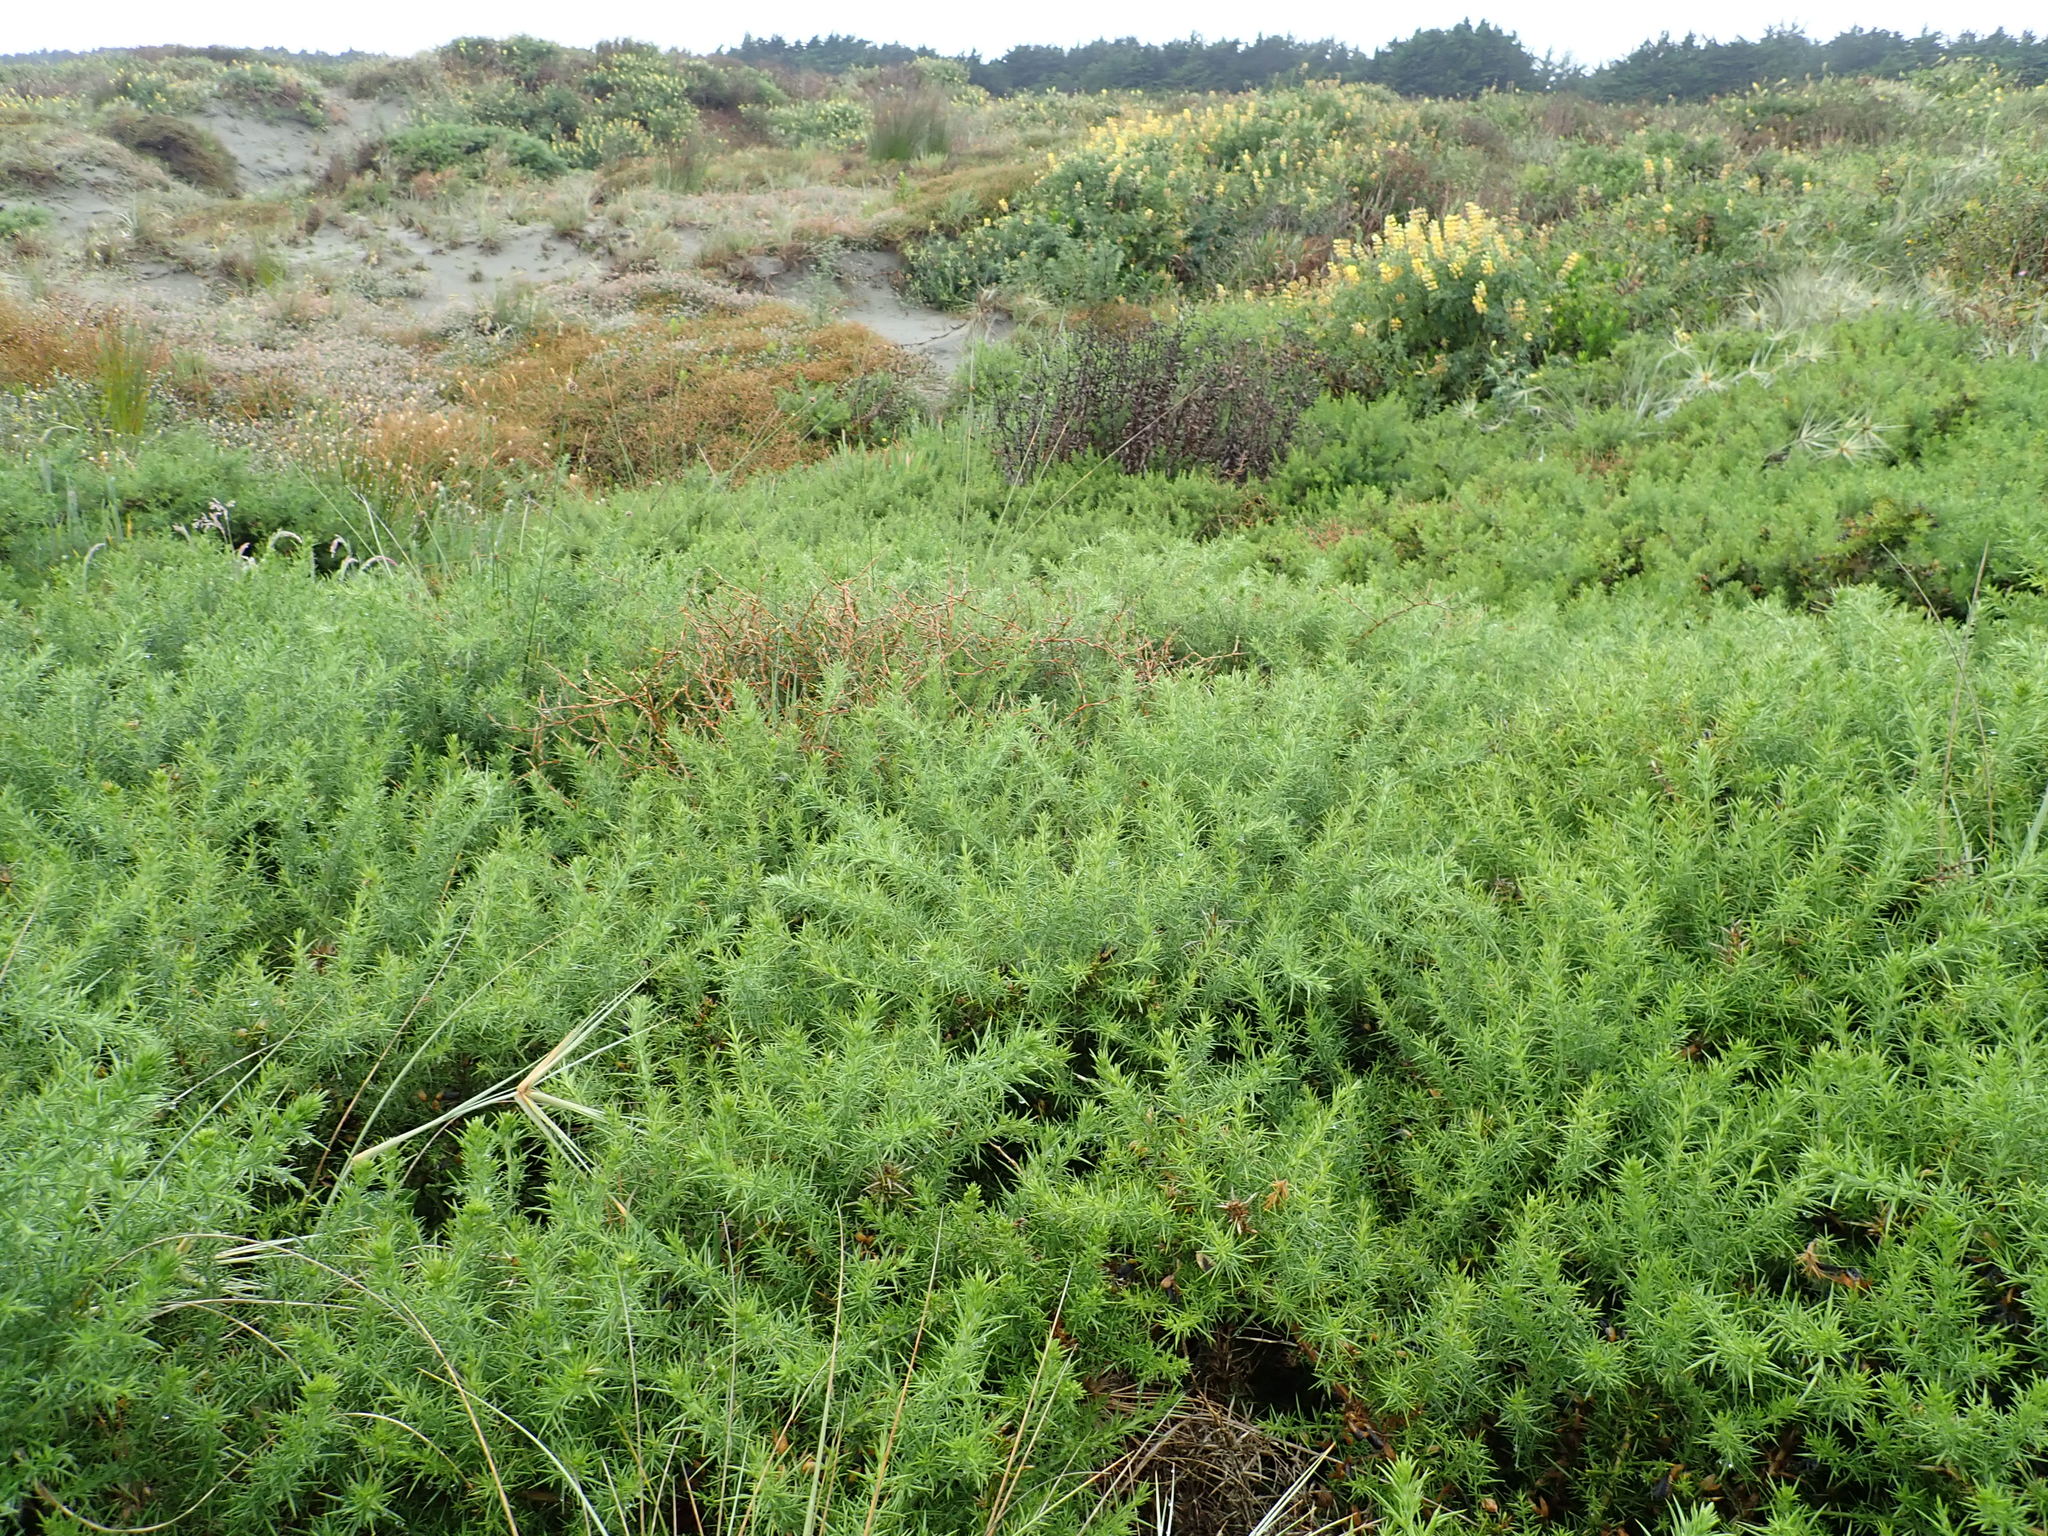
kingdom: Plantae
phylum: Tracheophyta
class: Magnoliopsida
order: Fabales
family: Fabaceae
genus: Ulex
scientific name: Ulex europaeus
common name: Common gorse
